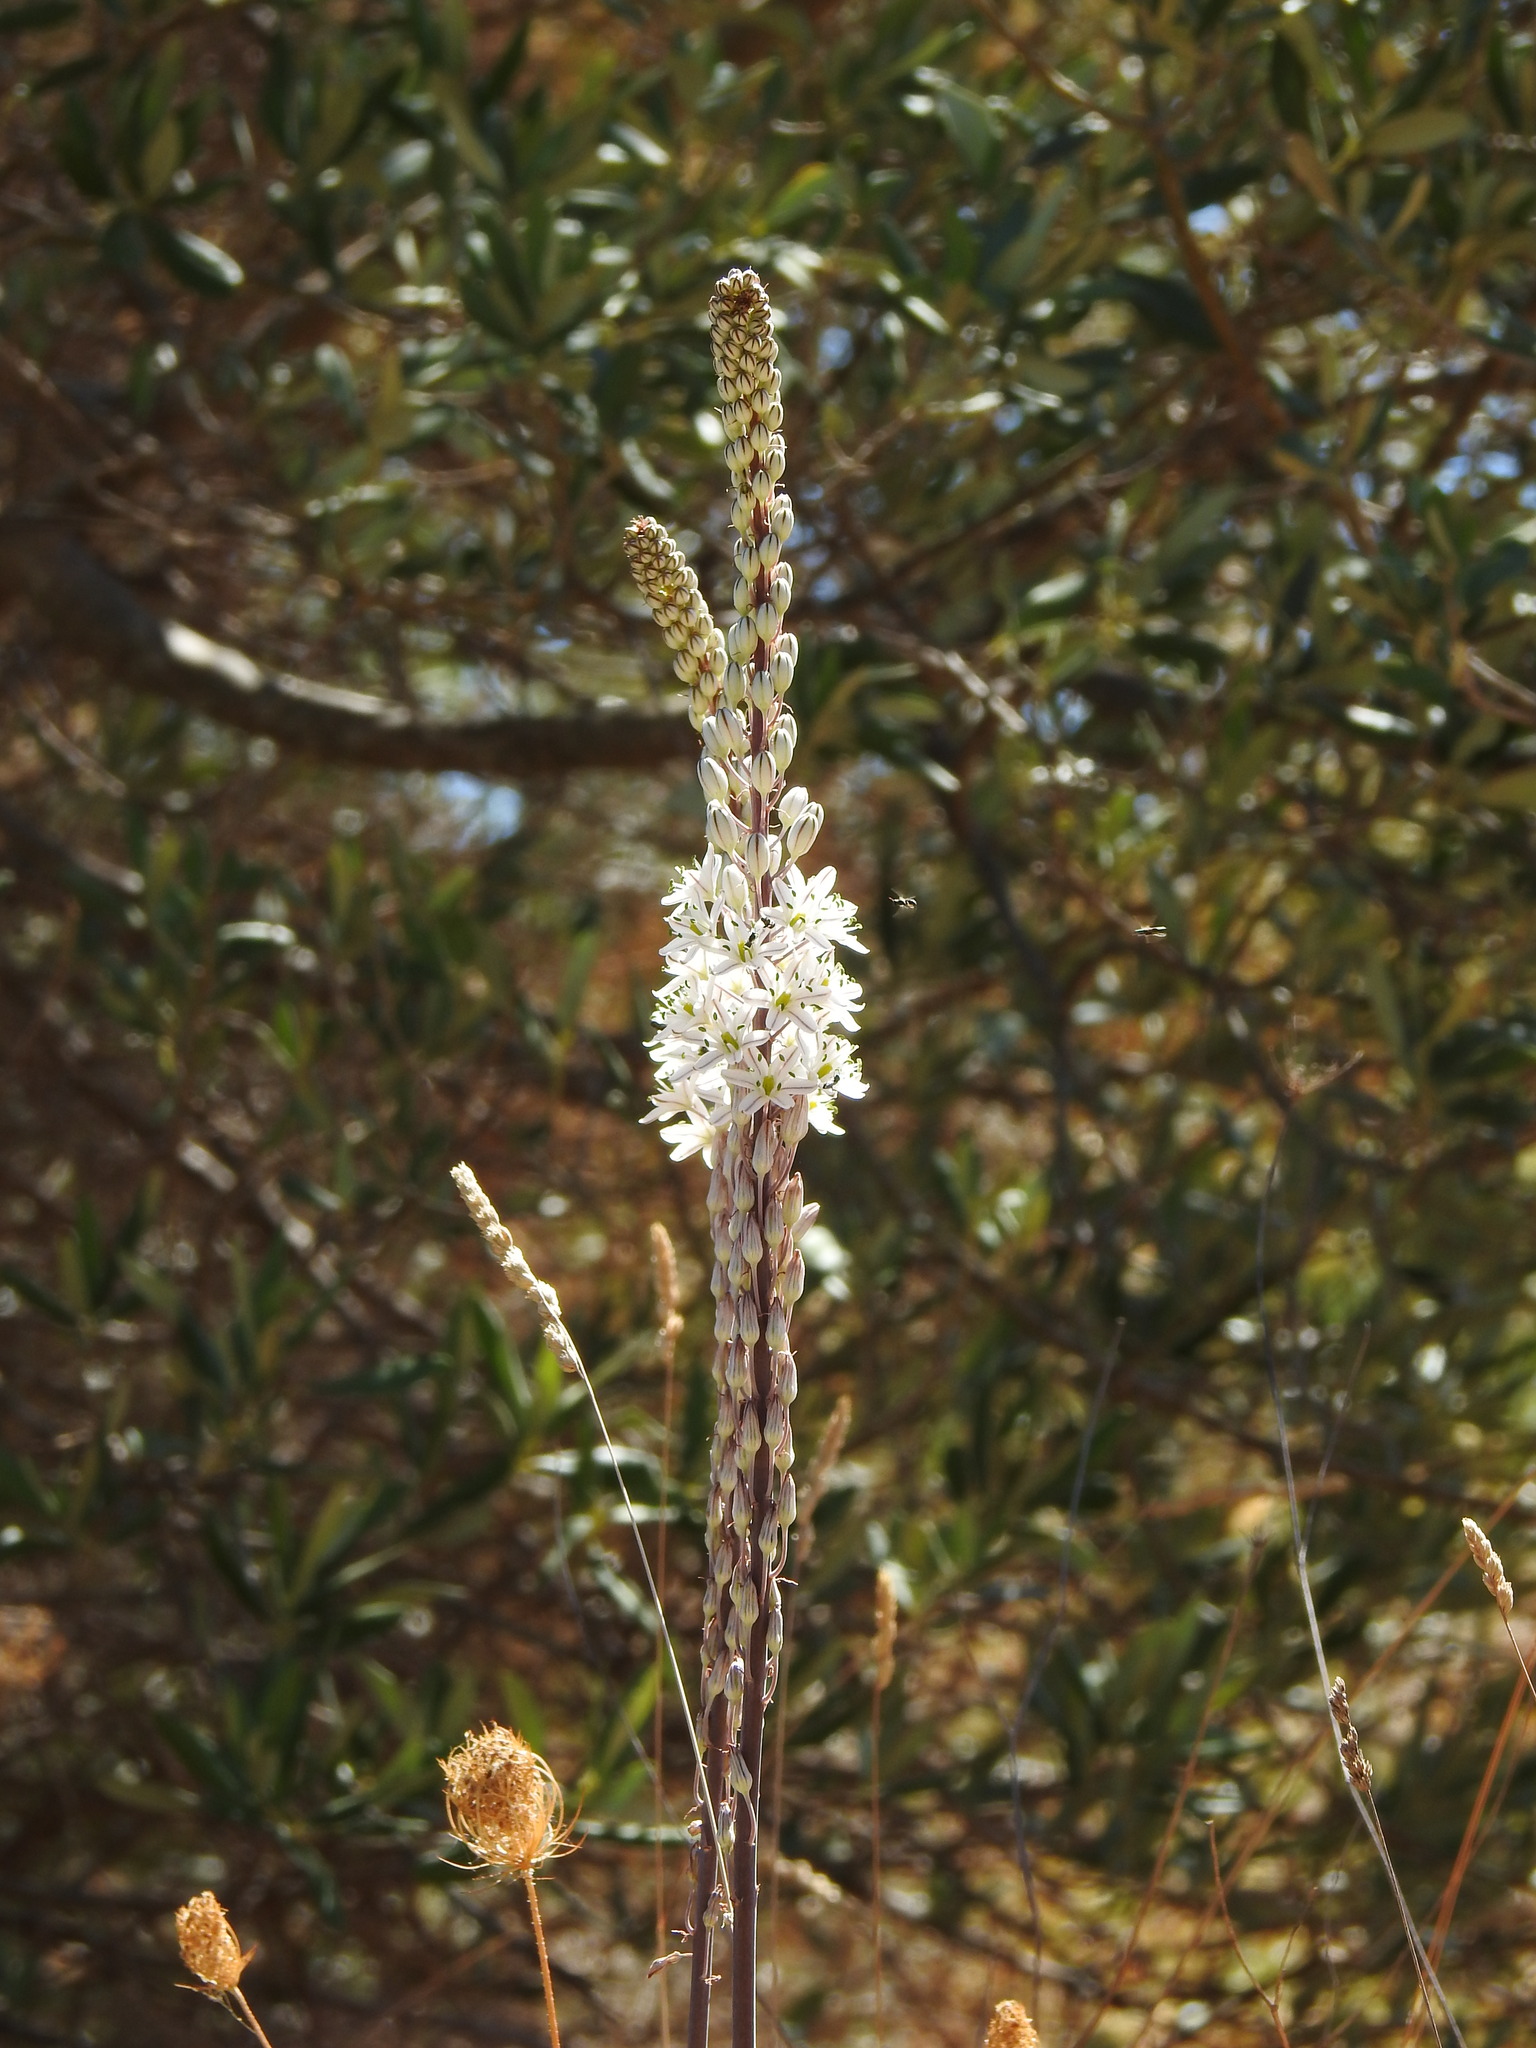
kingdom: Plantae
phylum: Tracheophyta
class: Liliopsida
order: Asparagales
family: Asparagaceae
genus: Drimia
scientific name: Drimia maritima
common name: Maritime squill
